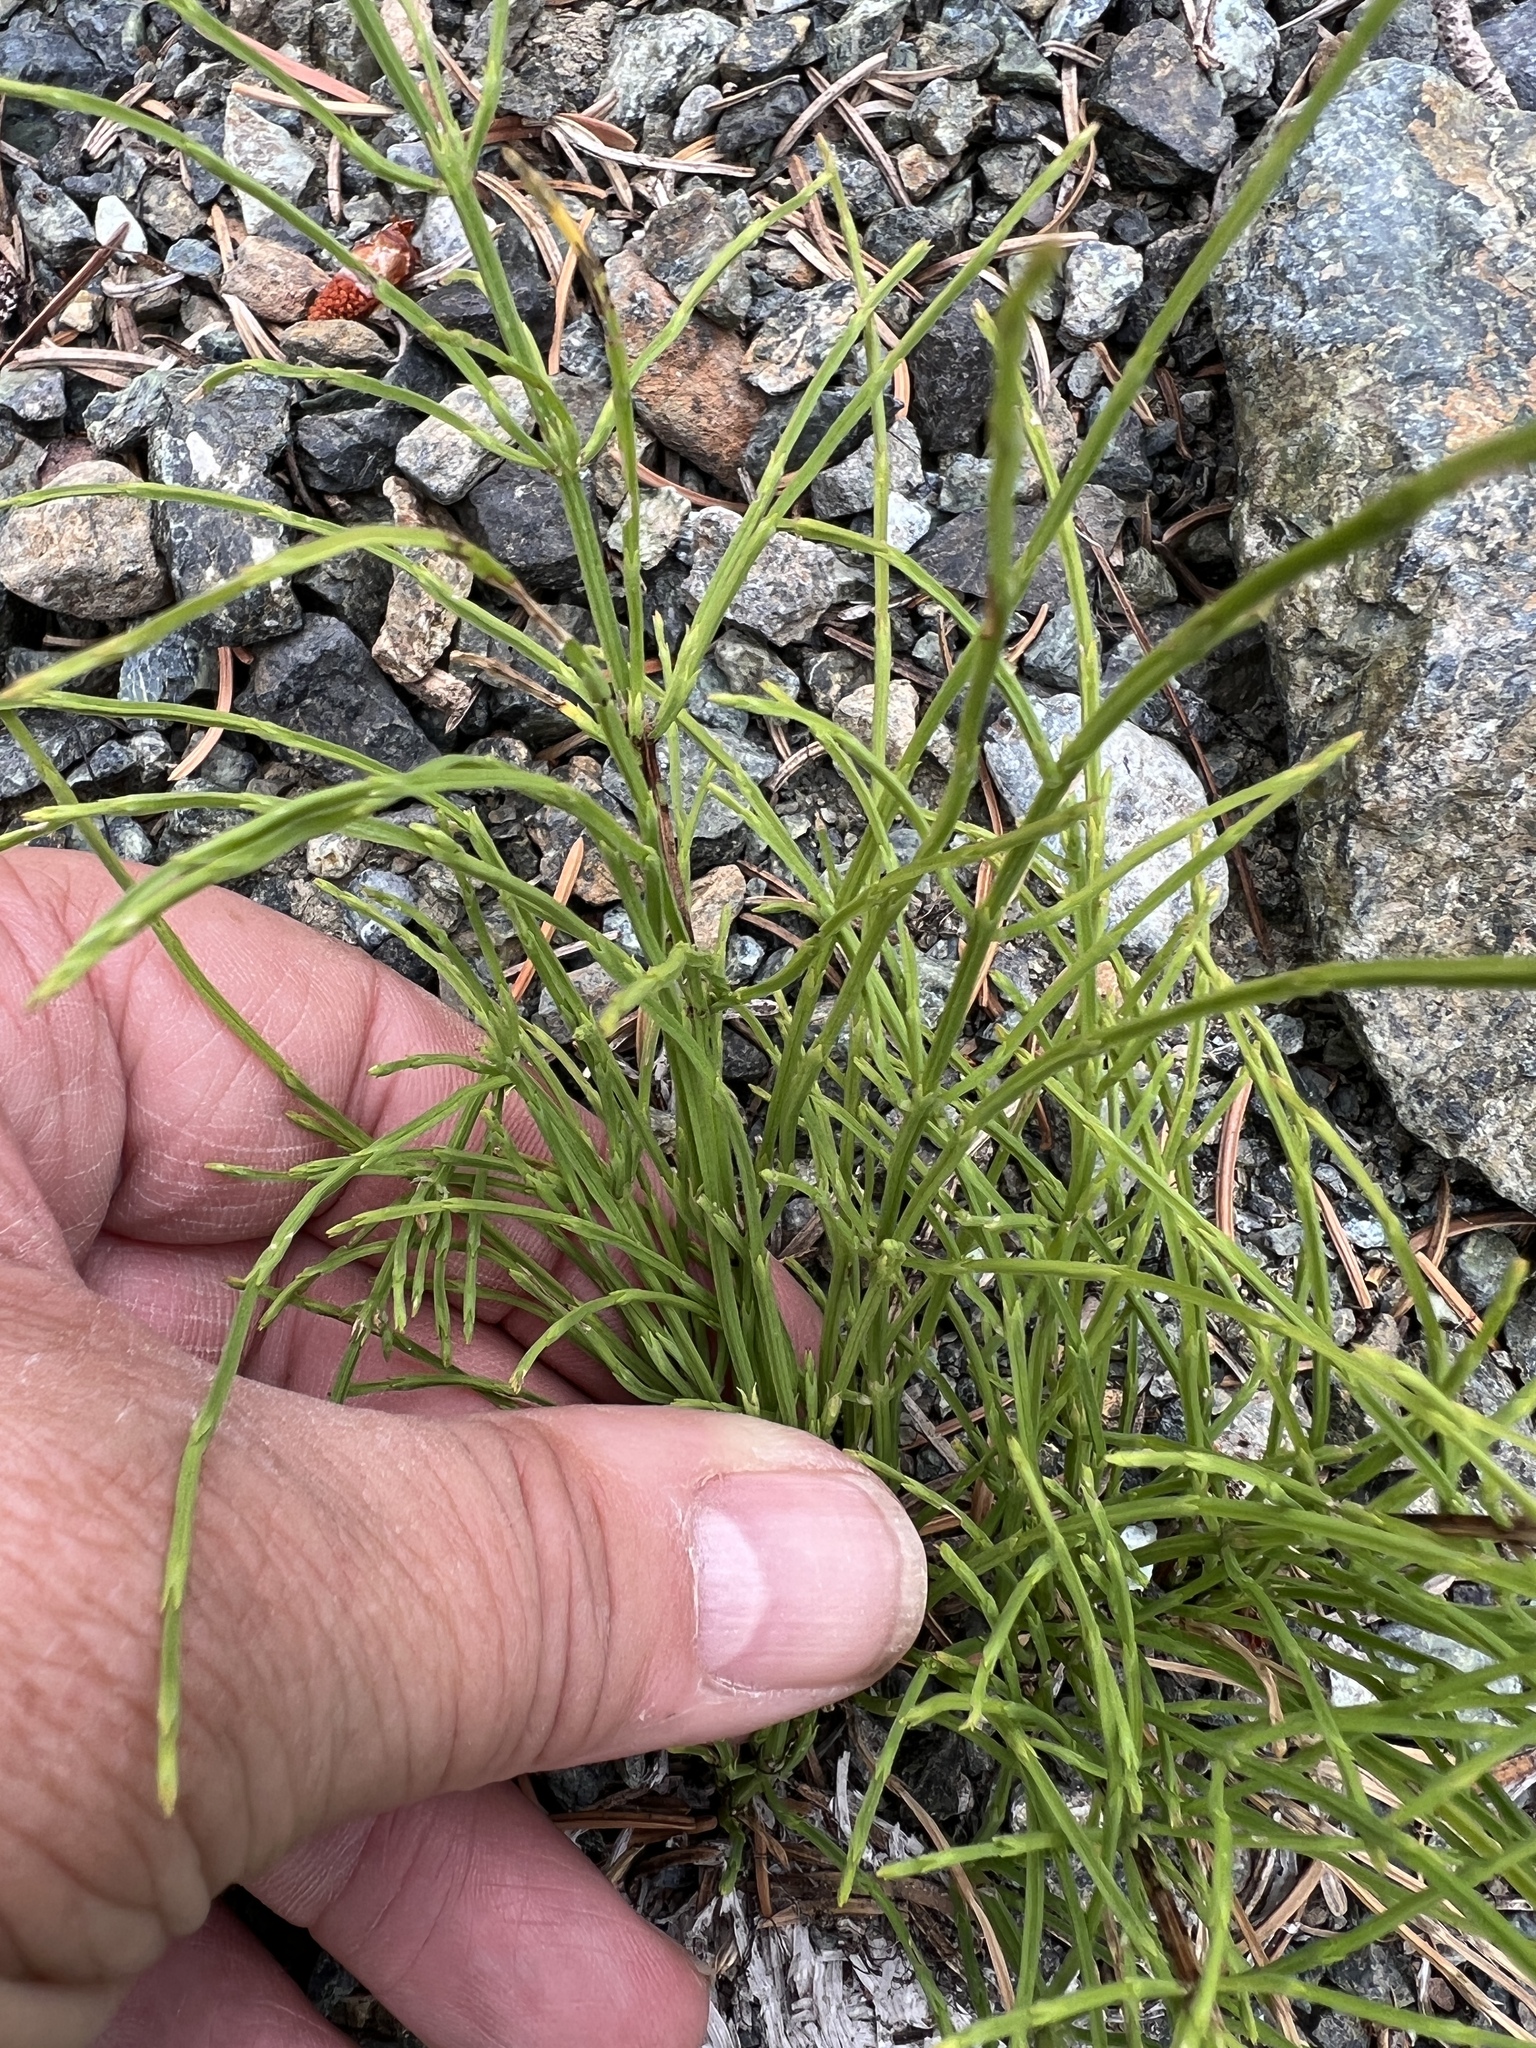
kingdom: Plantae
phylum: Tracheophyta
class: Polypodiopsida
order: Equisetales
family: Equisetaceae
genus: Equisetum
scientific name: Equisetum arvense
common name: Field horsetail
